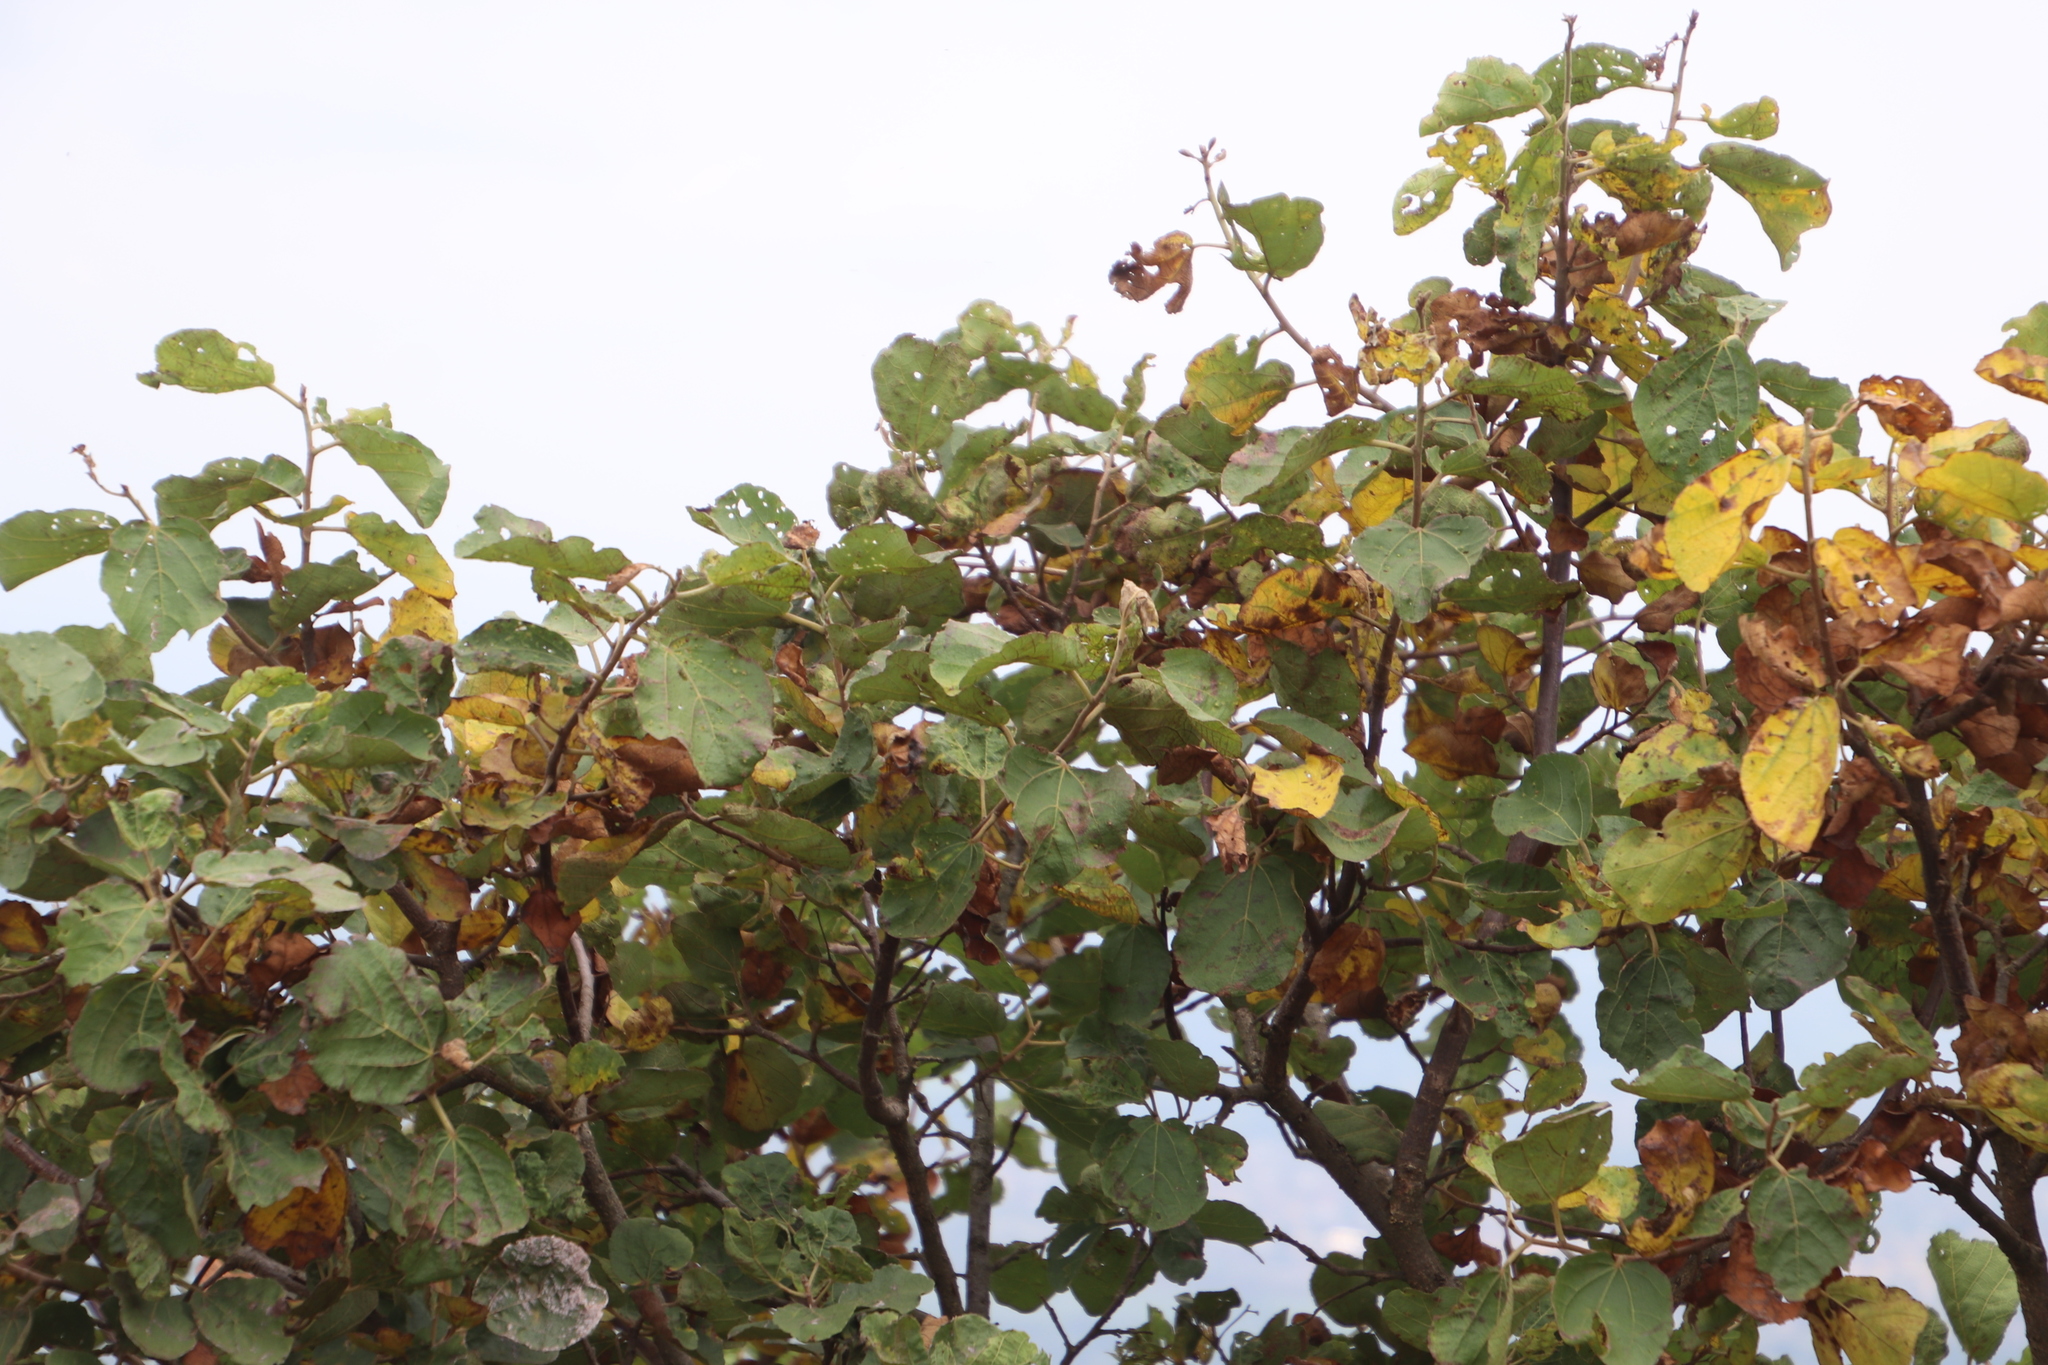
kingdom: Plantae
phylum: Tracheophyta
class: Magnoliopsida
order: Malvales
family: Malvaceae
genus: Dombeya
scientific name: Dombeya rotundifolia
